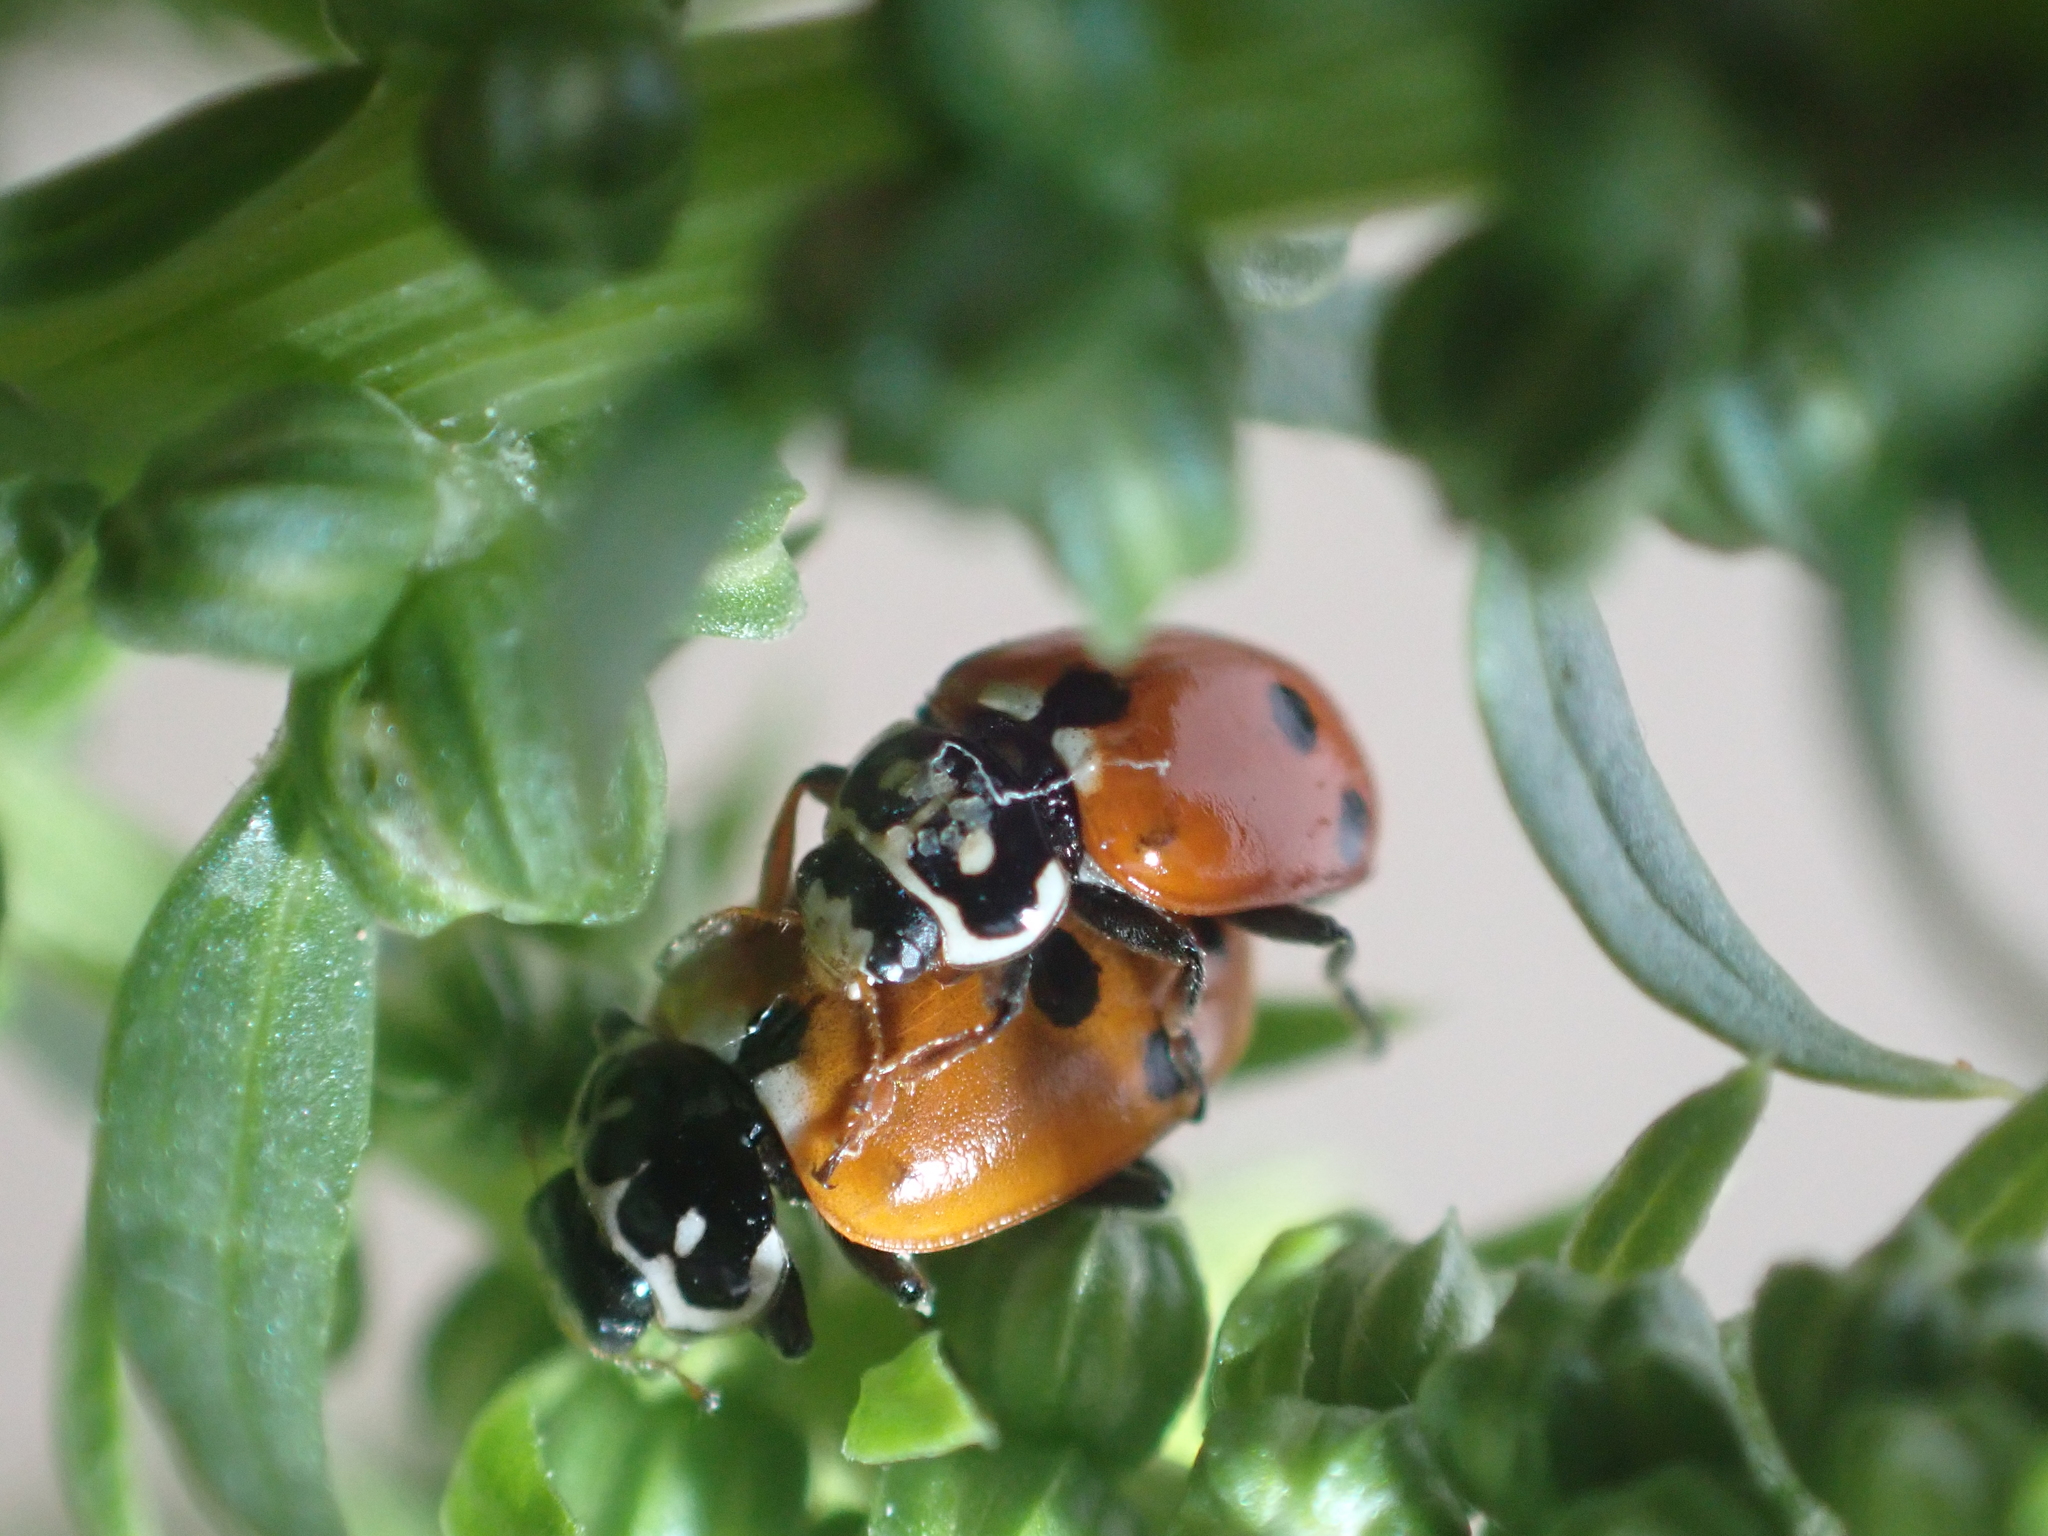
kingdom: Animalia
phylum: Arthropoda
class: Insecta
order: Coleoptera
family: Coccinellidae
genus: Hippodamia
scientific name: Hippodamia variegata
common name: Ladybird beetle
